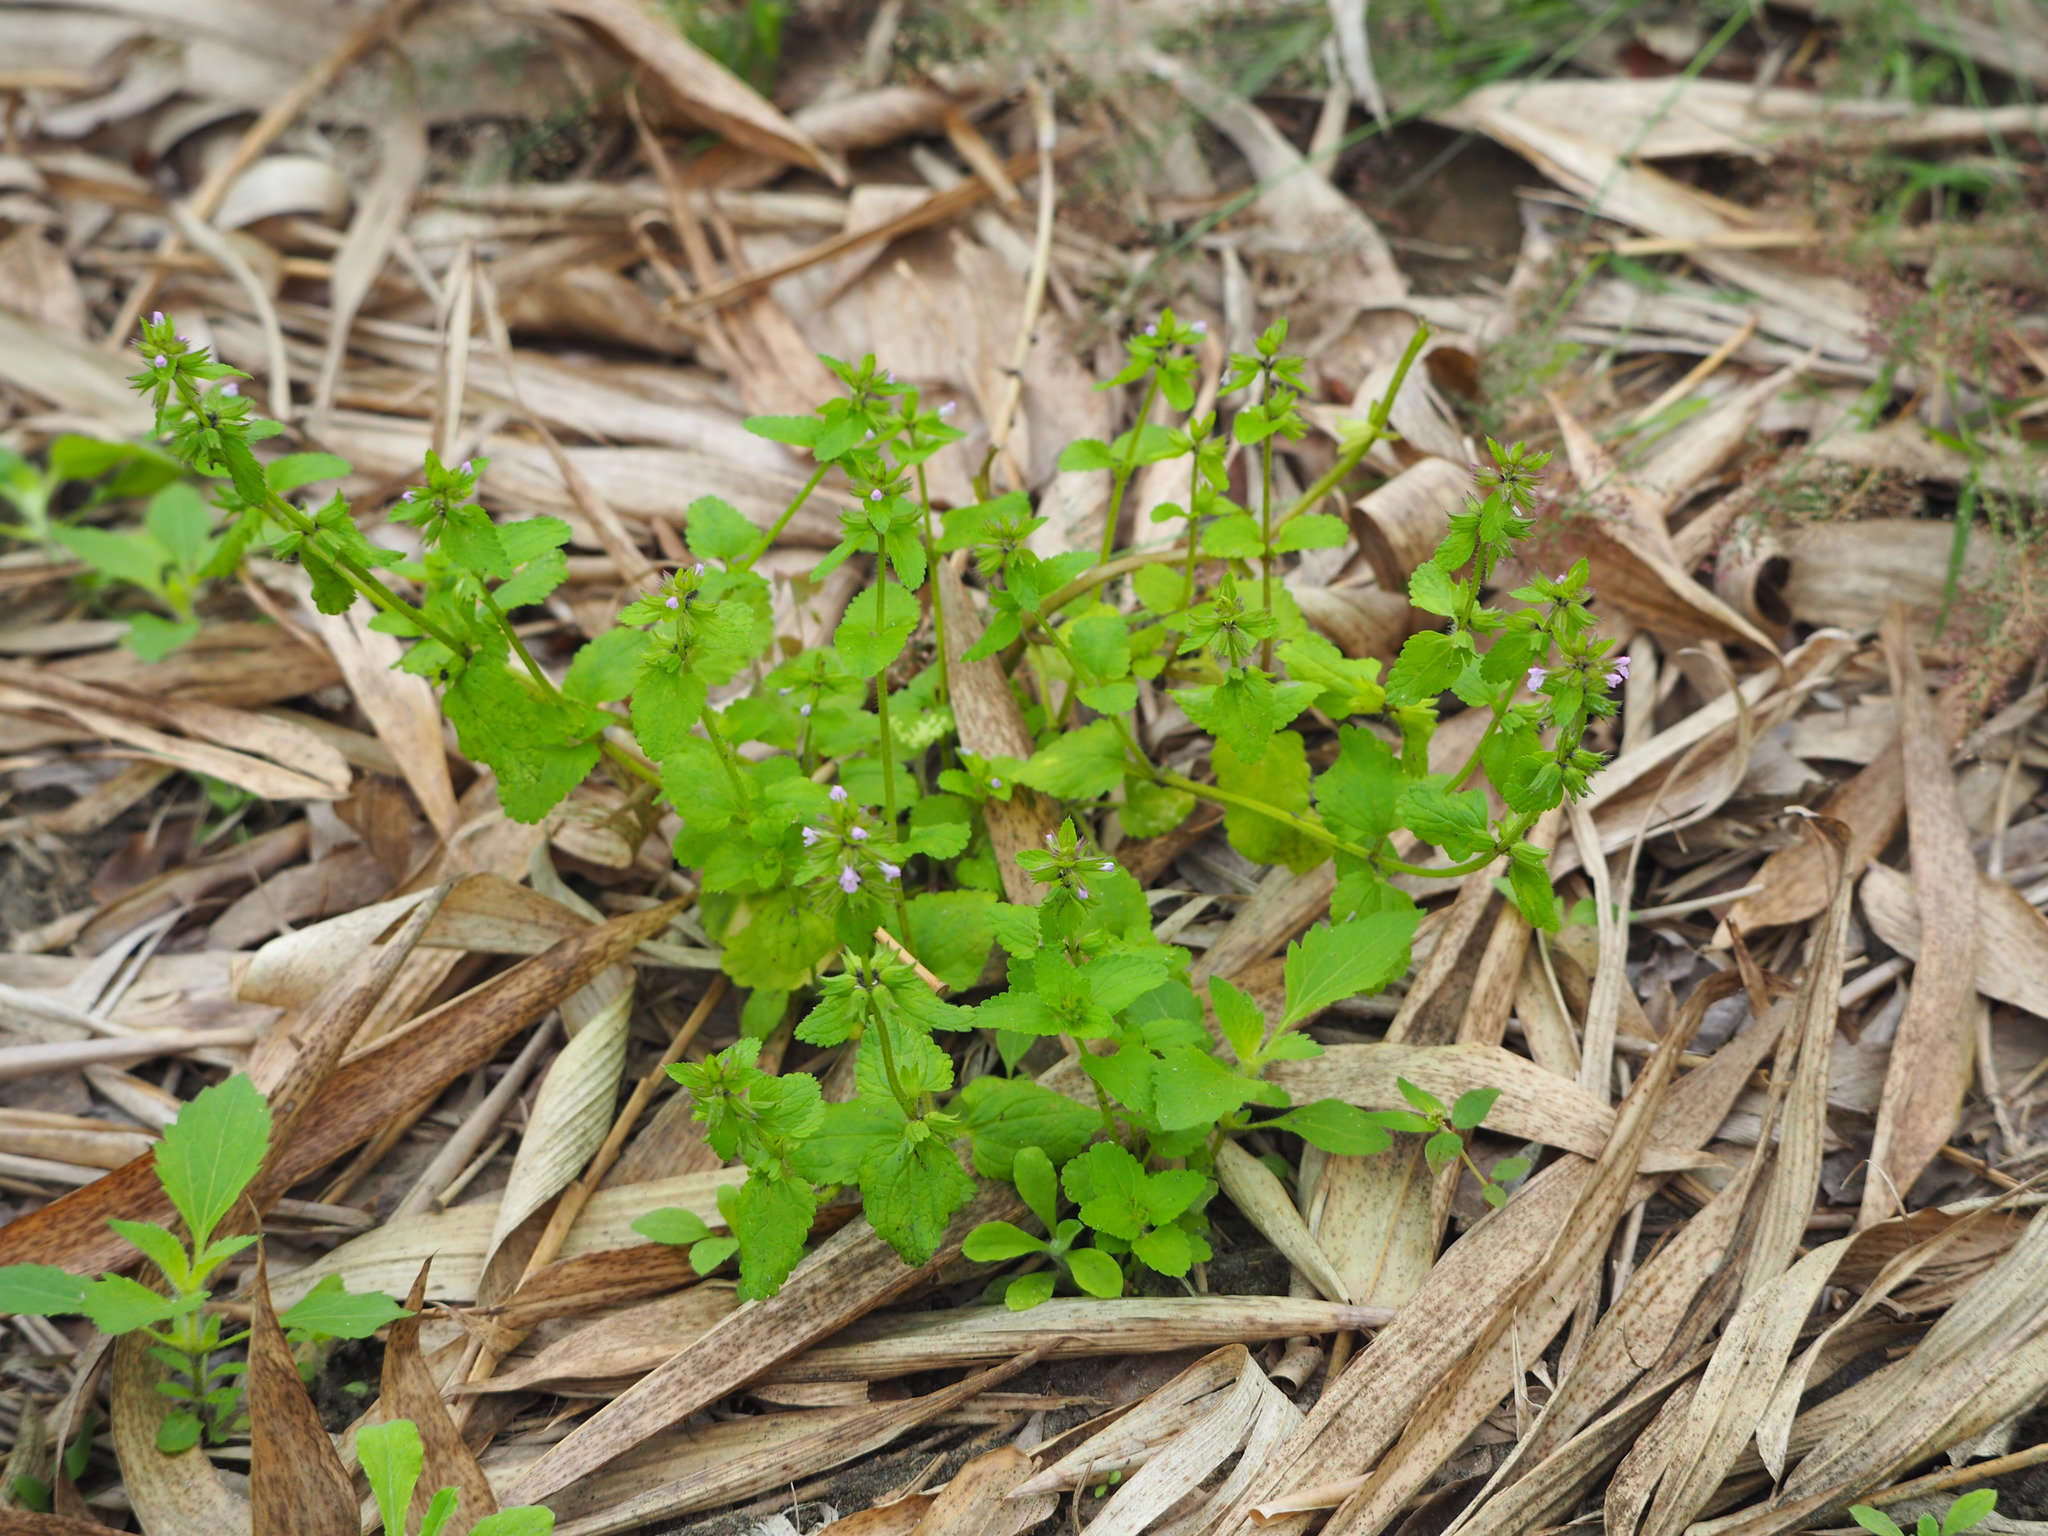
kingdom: Plantae
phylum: Tracheophyta
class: Magnoliopsida
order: Lamiales
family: Lamiaceae
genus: Stachys
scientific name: Stachys arvensis
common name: Field woundwort
